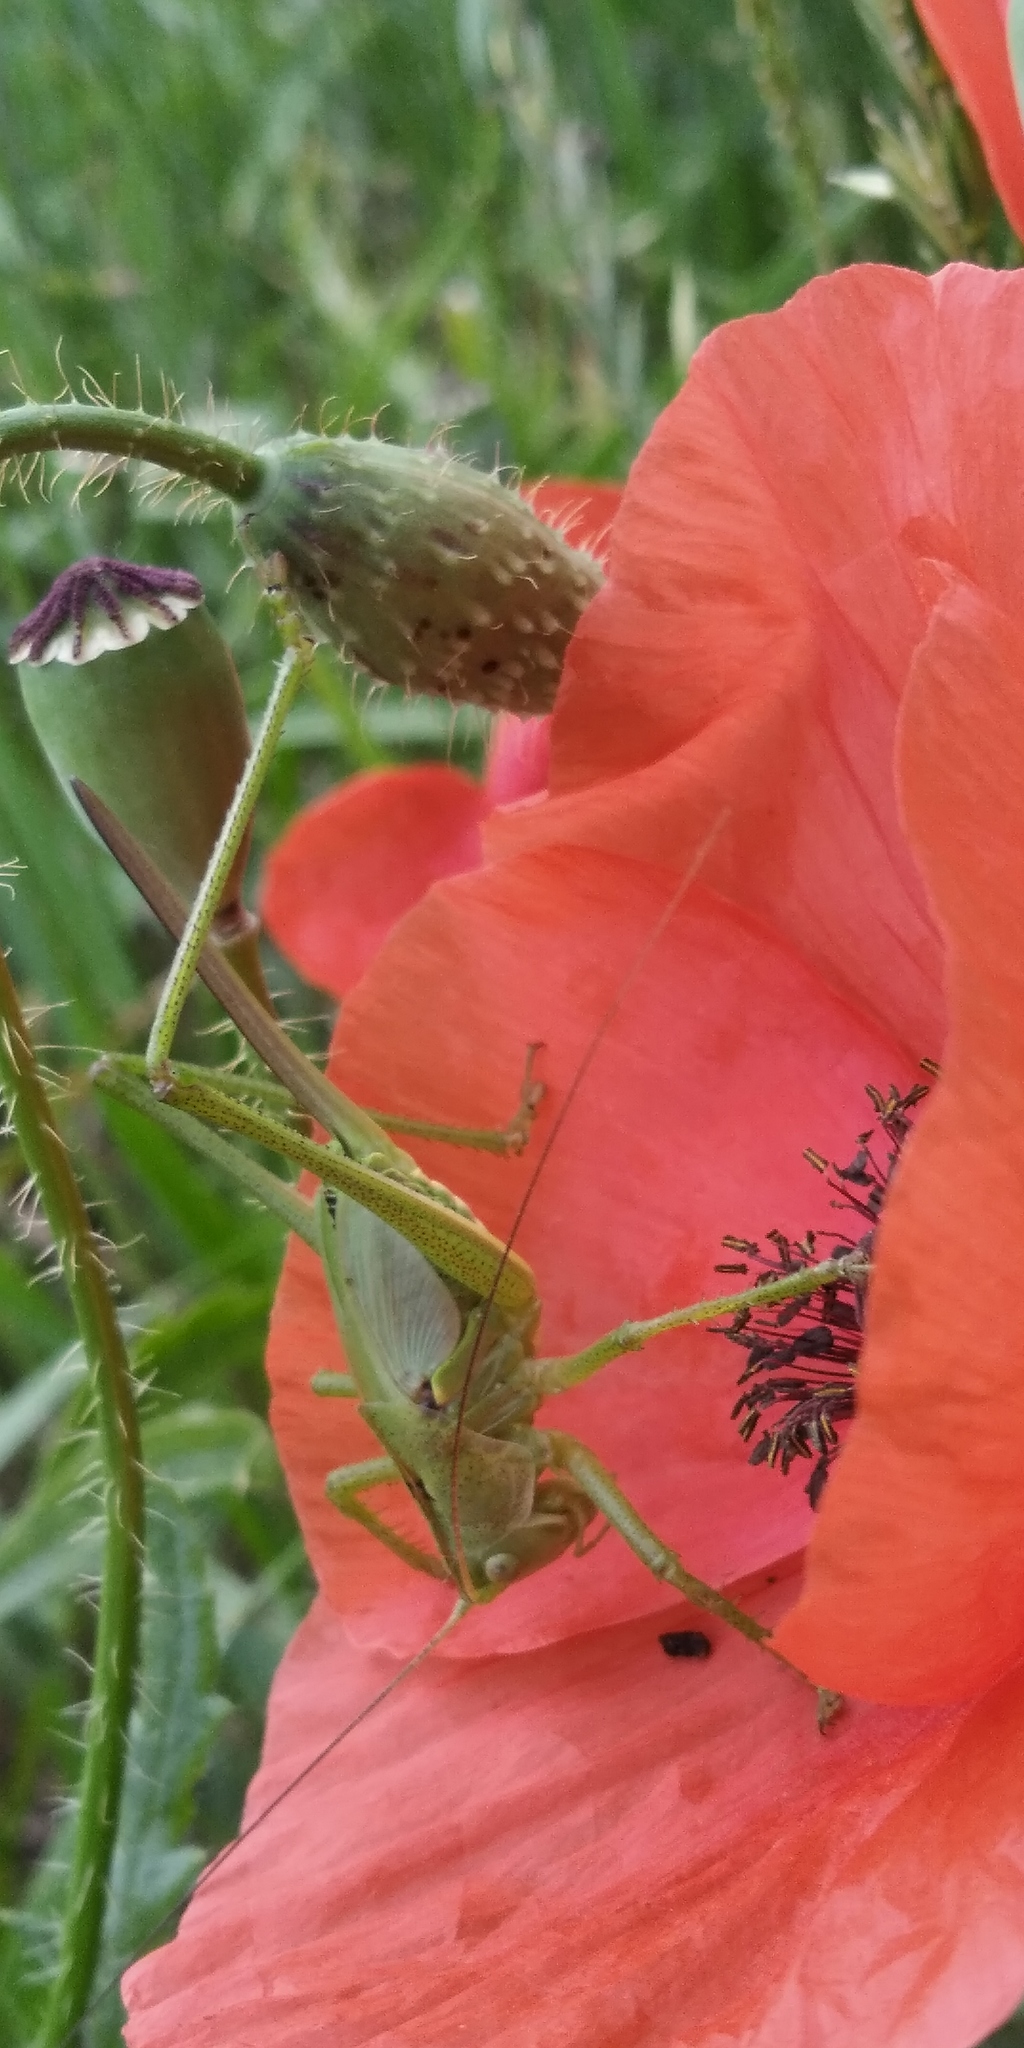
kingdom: Animalia
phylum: Arthropoda
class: Insecta
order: Orthoptera
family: Tettigoniidae
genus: Tettigonia
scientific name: Tettigonia viridissima
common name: Great green bush-cricket
